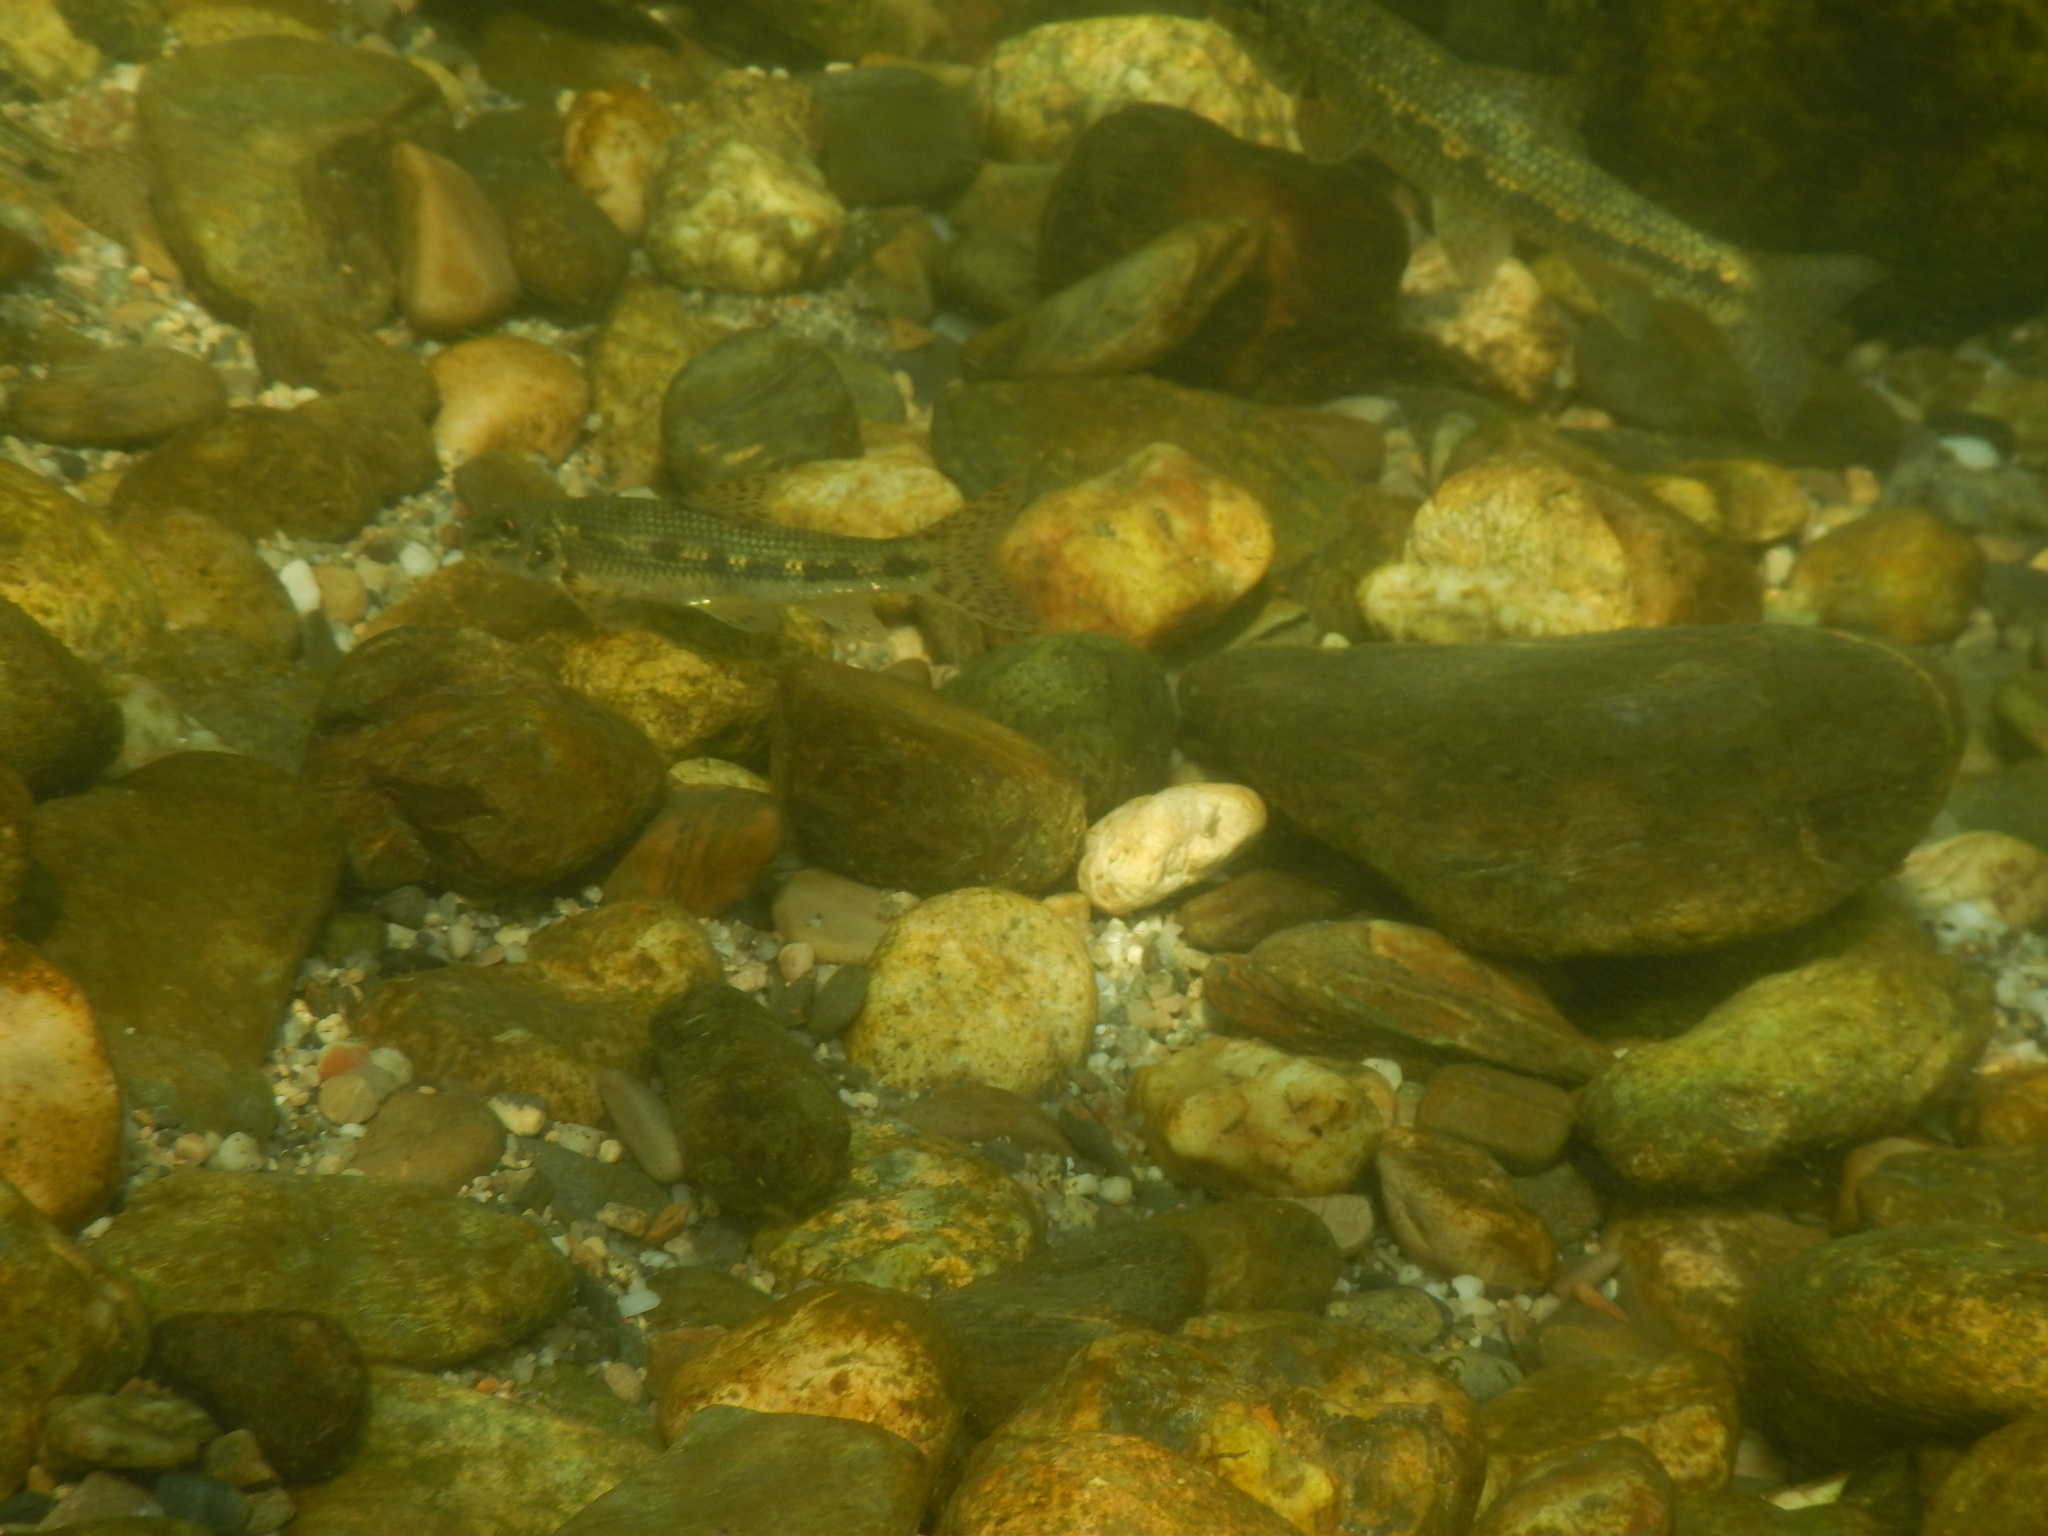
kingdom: Animalia
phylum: Chordata
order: Cypriniformes
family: Cyprinidae
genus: Gobio
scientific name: Gobio occitaniae
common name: Languedoc gudgeon
